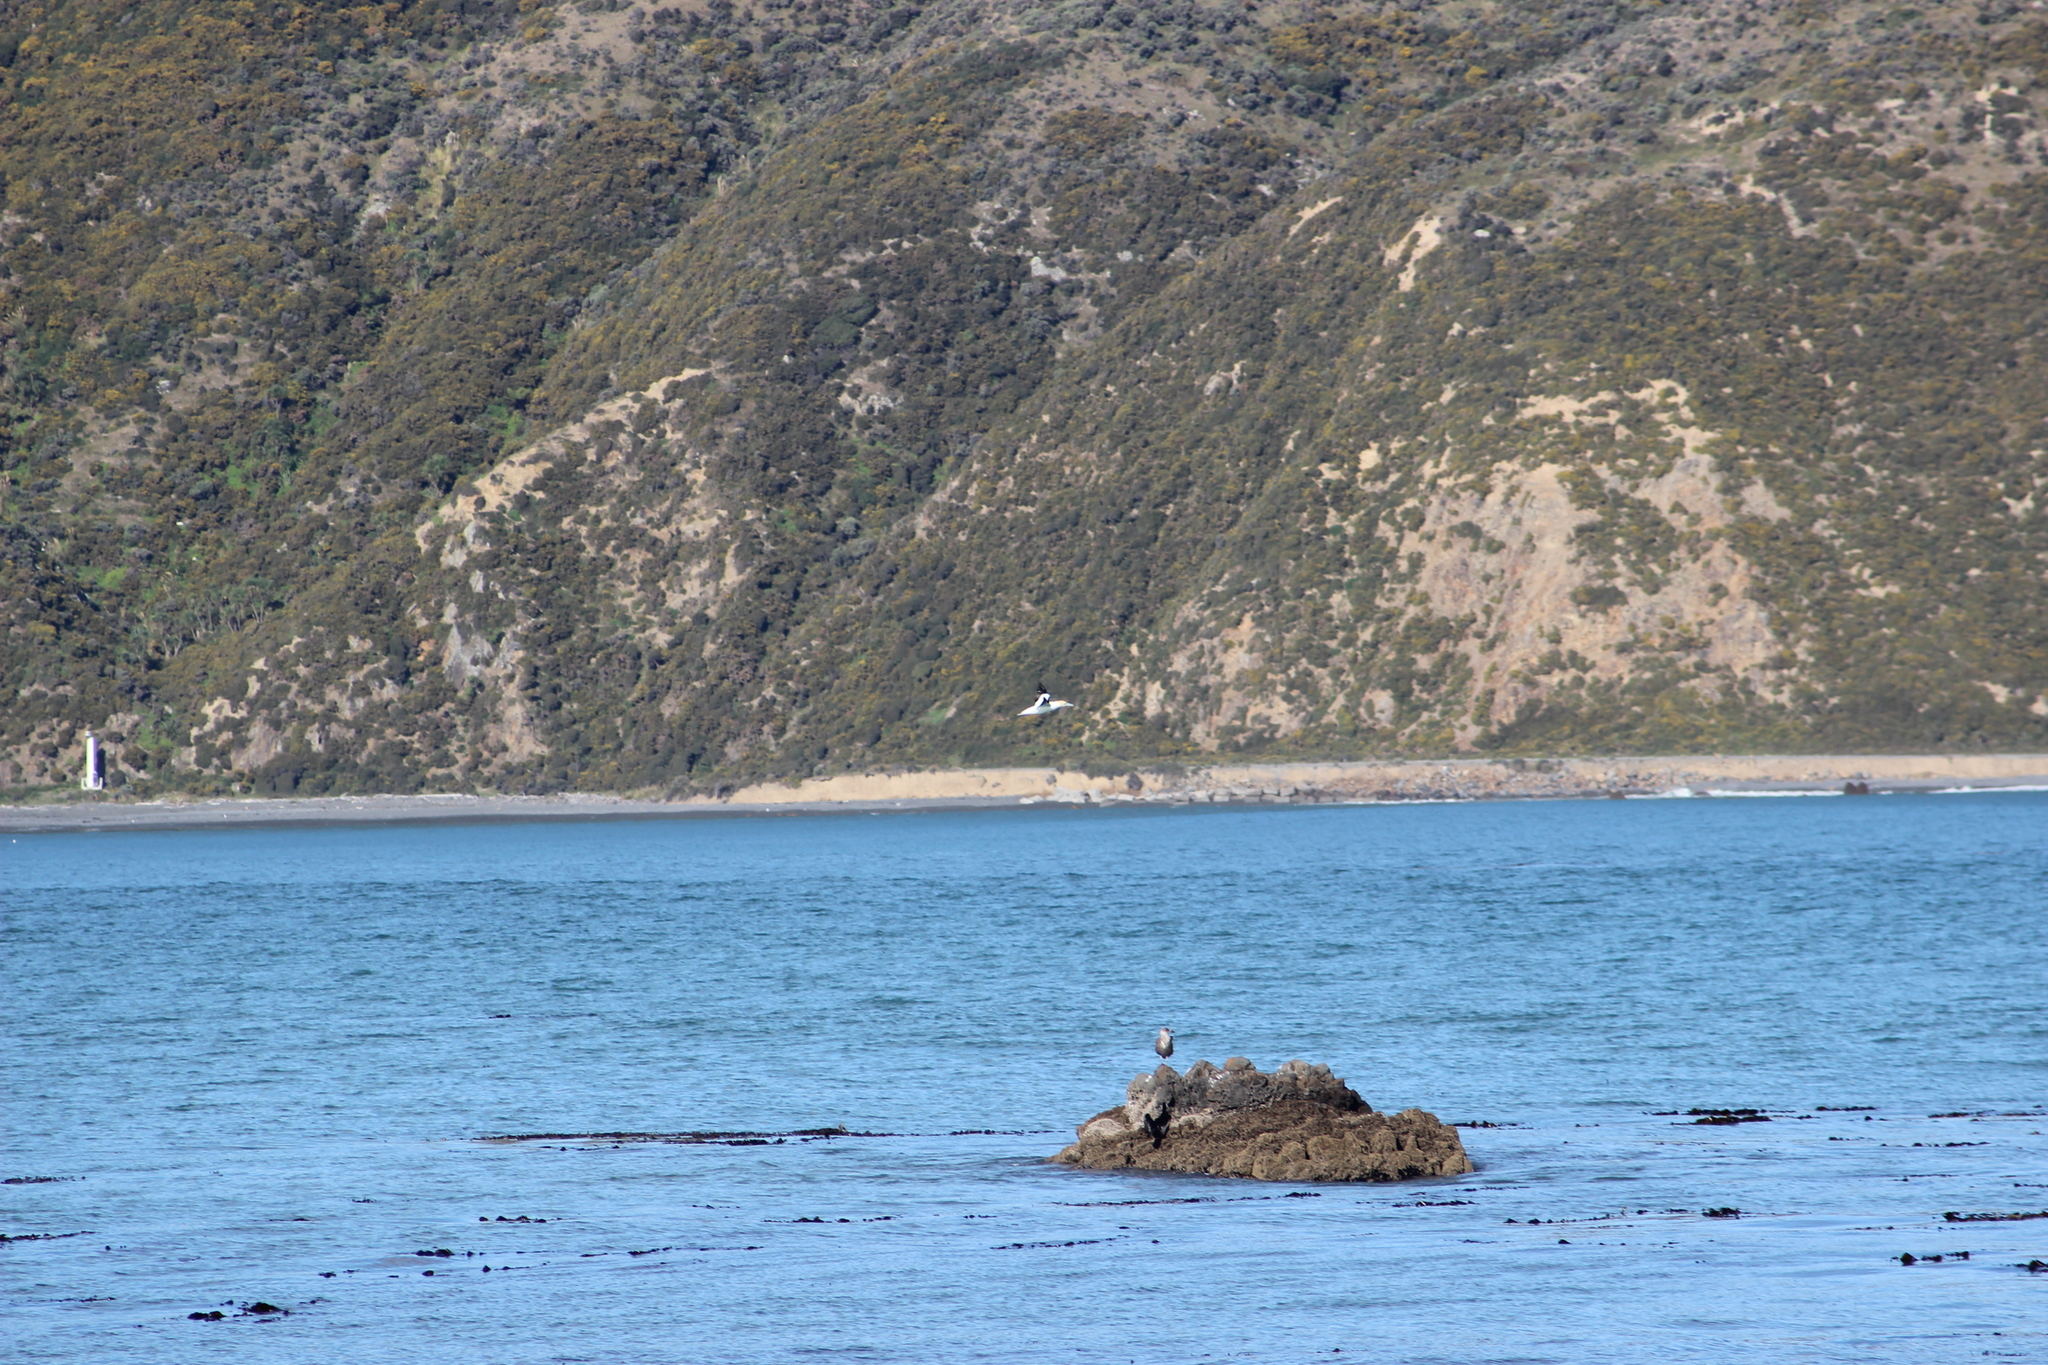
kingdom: Animalia
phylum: Chordata
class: Aves
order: Suliformes
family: Sulidae
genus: Morus
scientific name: Morus serrator
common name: Australasian gannet
